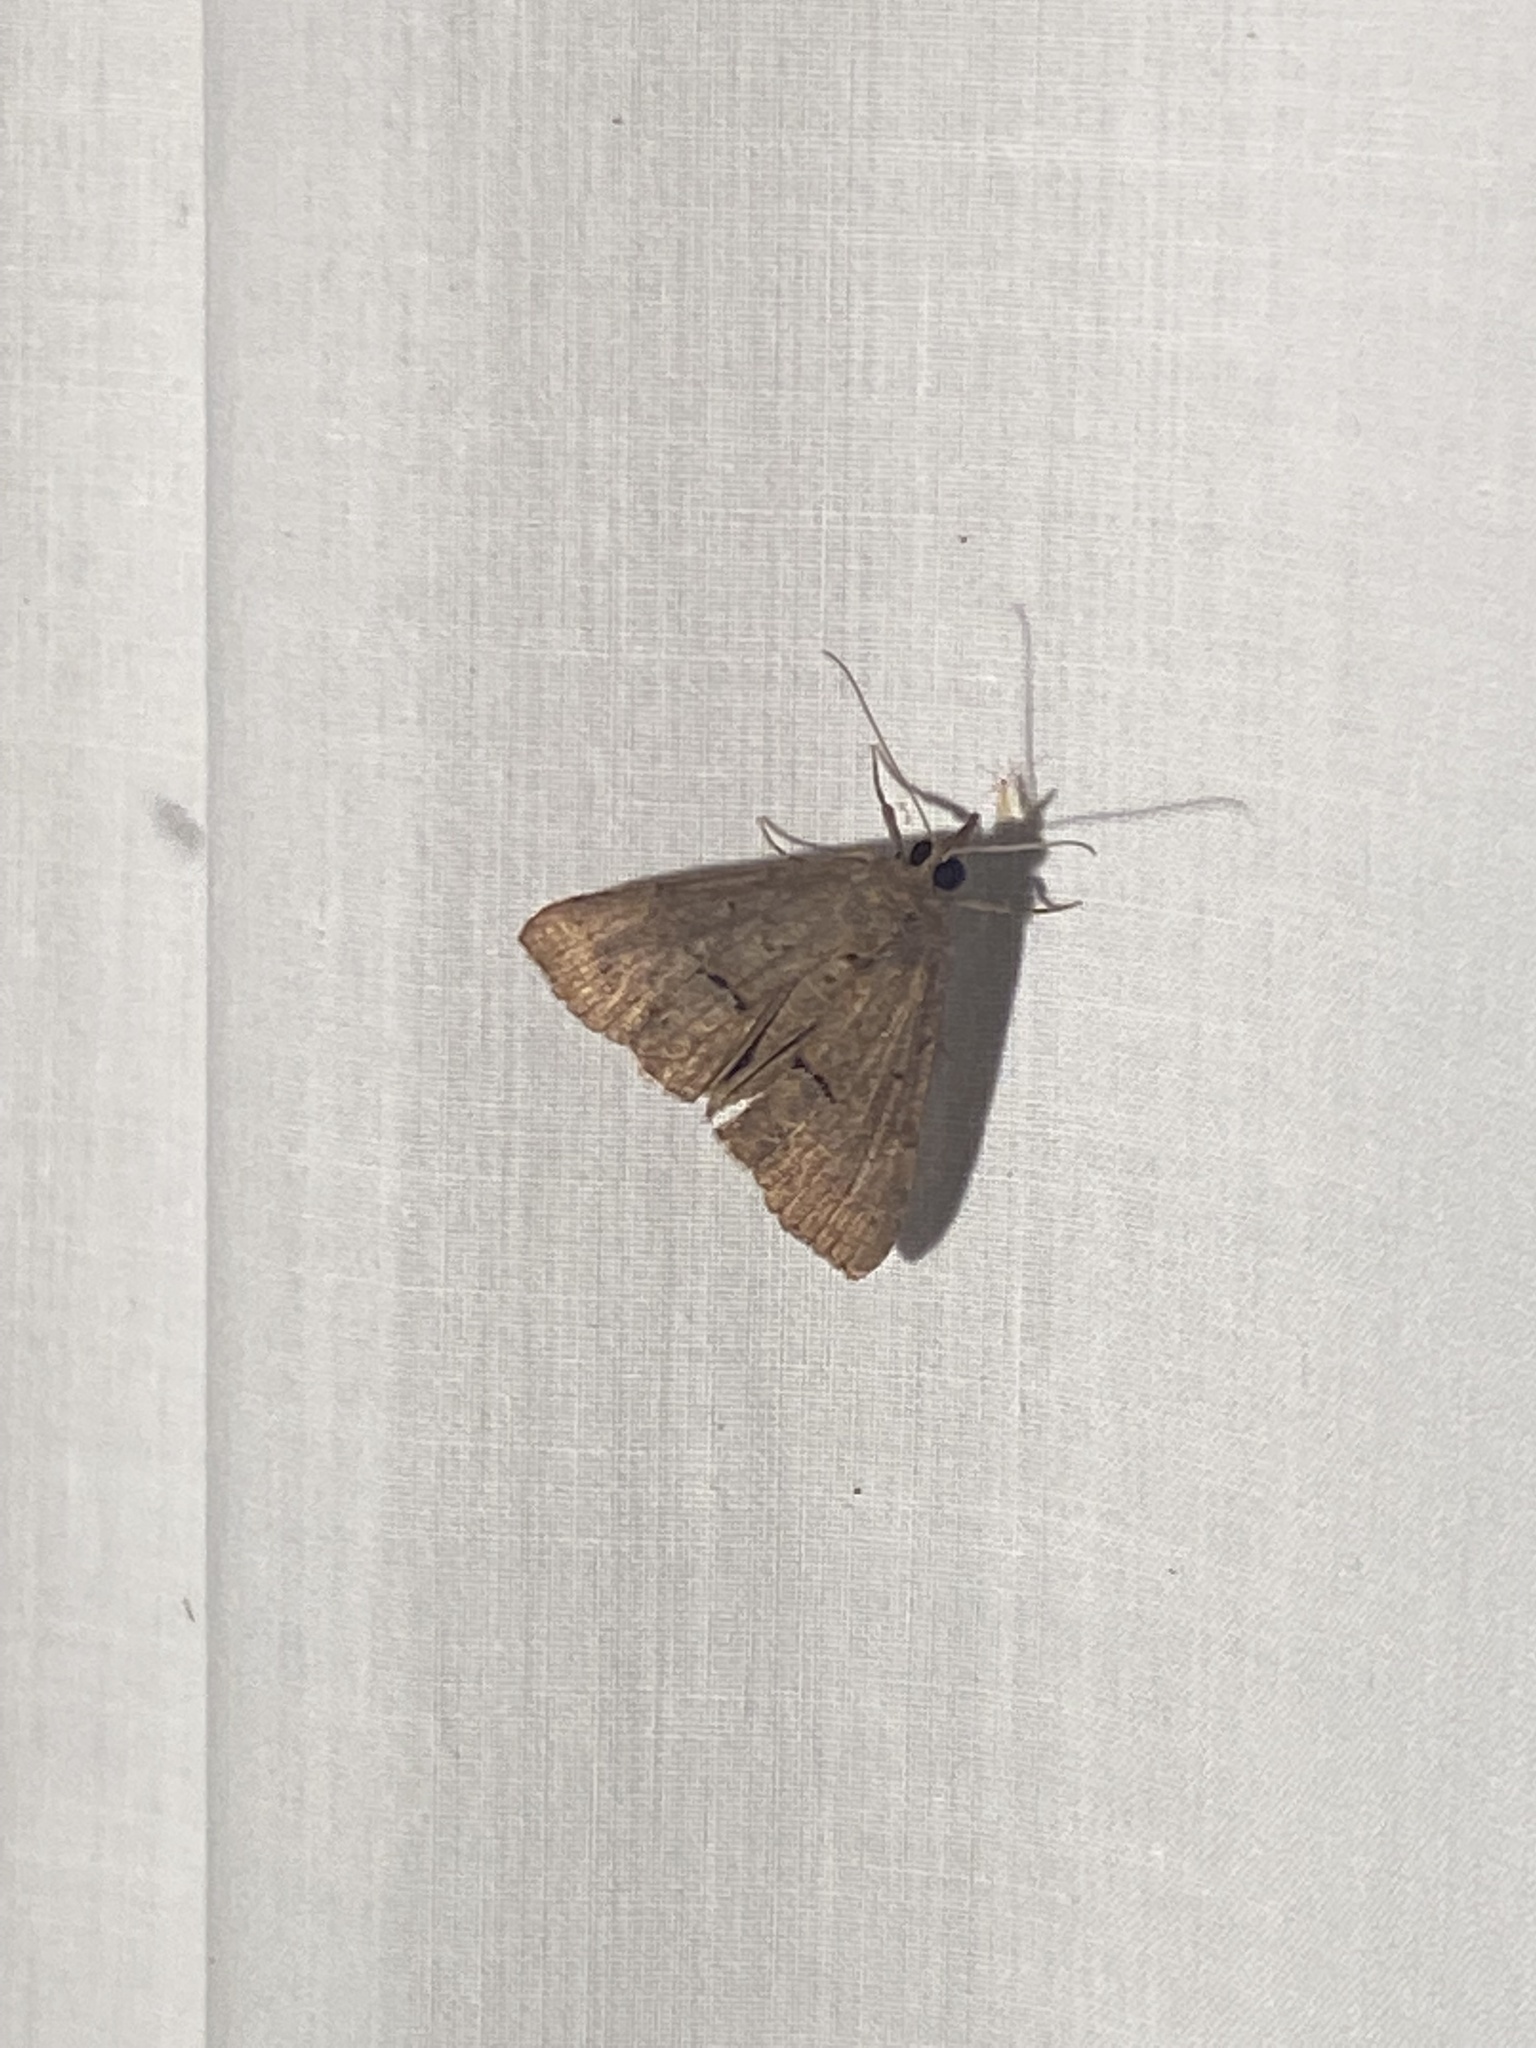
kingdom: Animalia
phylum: Arthropoda
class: Insecta
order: Lepidoptera
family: Erebidae
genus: Hypena
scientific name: Hypena scabra
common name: Green cloverworm
